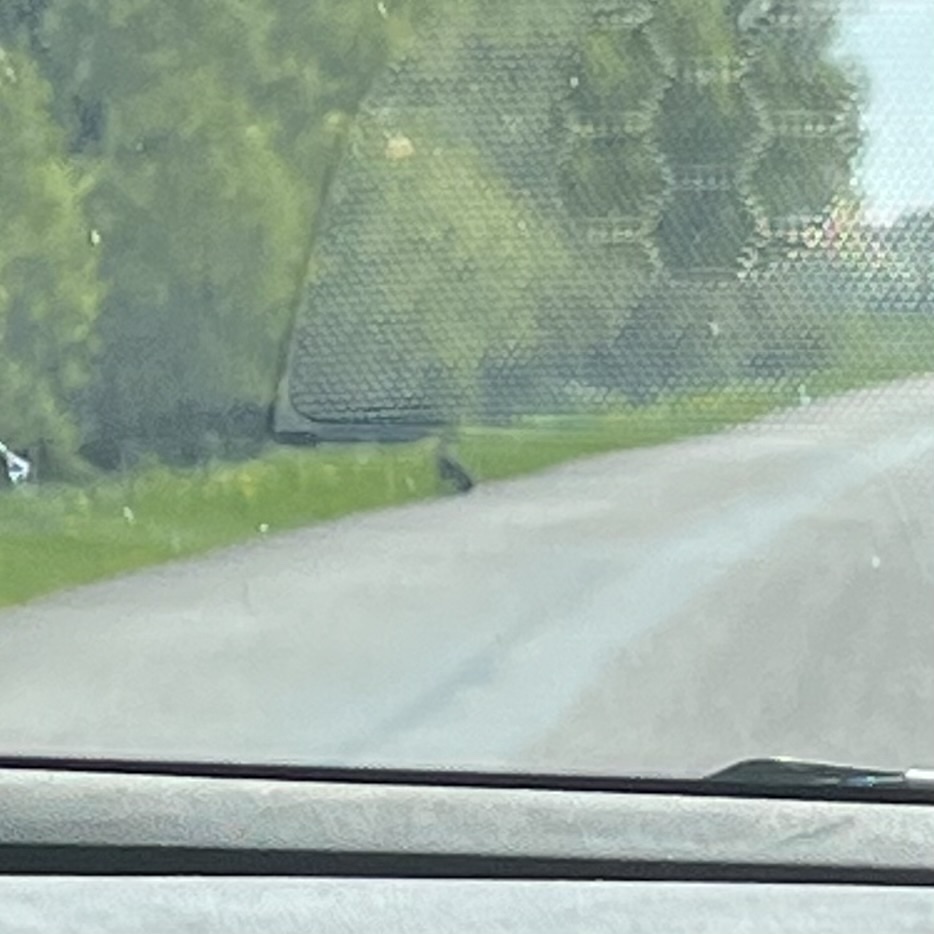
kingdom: Animalia
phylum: Chordata
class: Mammalia
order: Lagomorpha
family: Leporidae
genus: Lepus
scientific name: Lepus europaeus
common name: European hare
